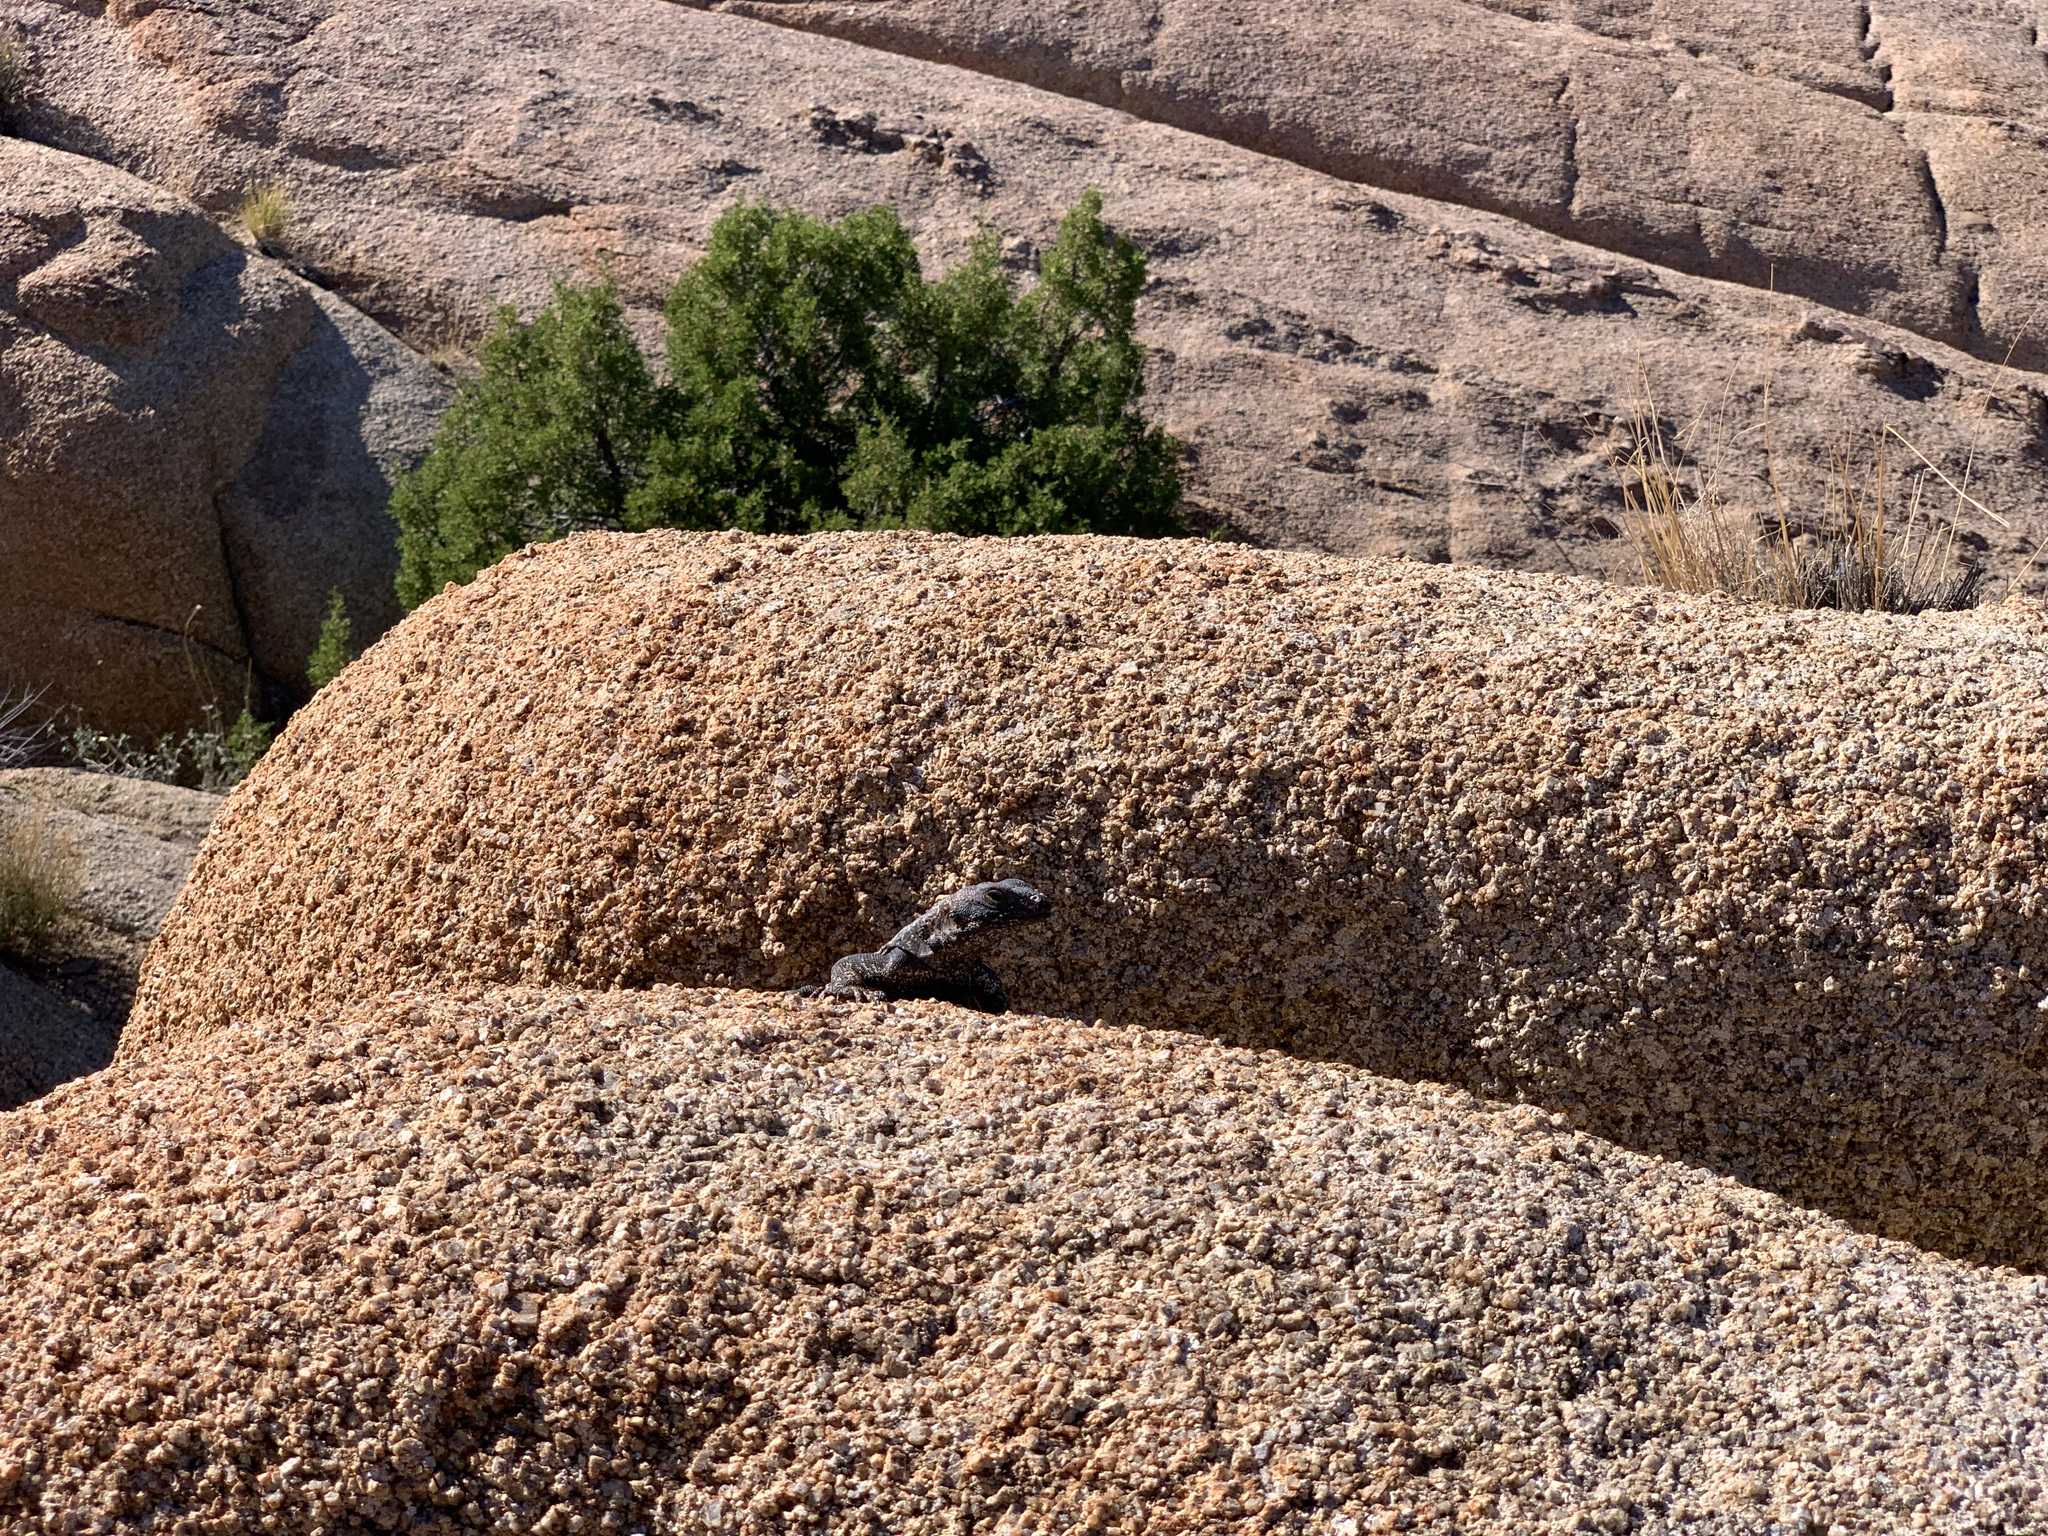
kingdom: Animalia
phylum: Chordata
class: Squamata
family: Iguanidae
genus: Sauromalus
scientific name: Sauromalus ater
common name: Northern chuckwalla
